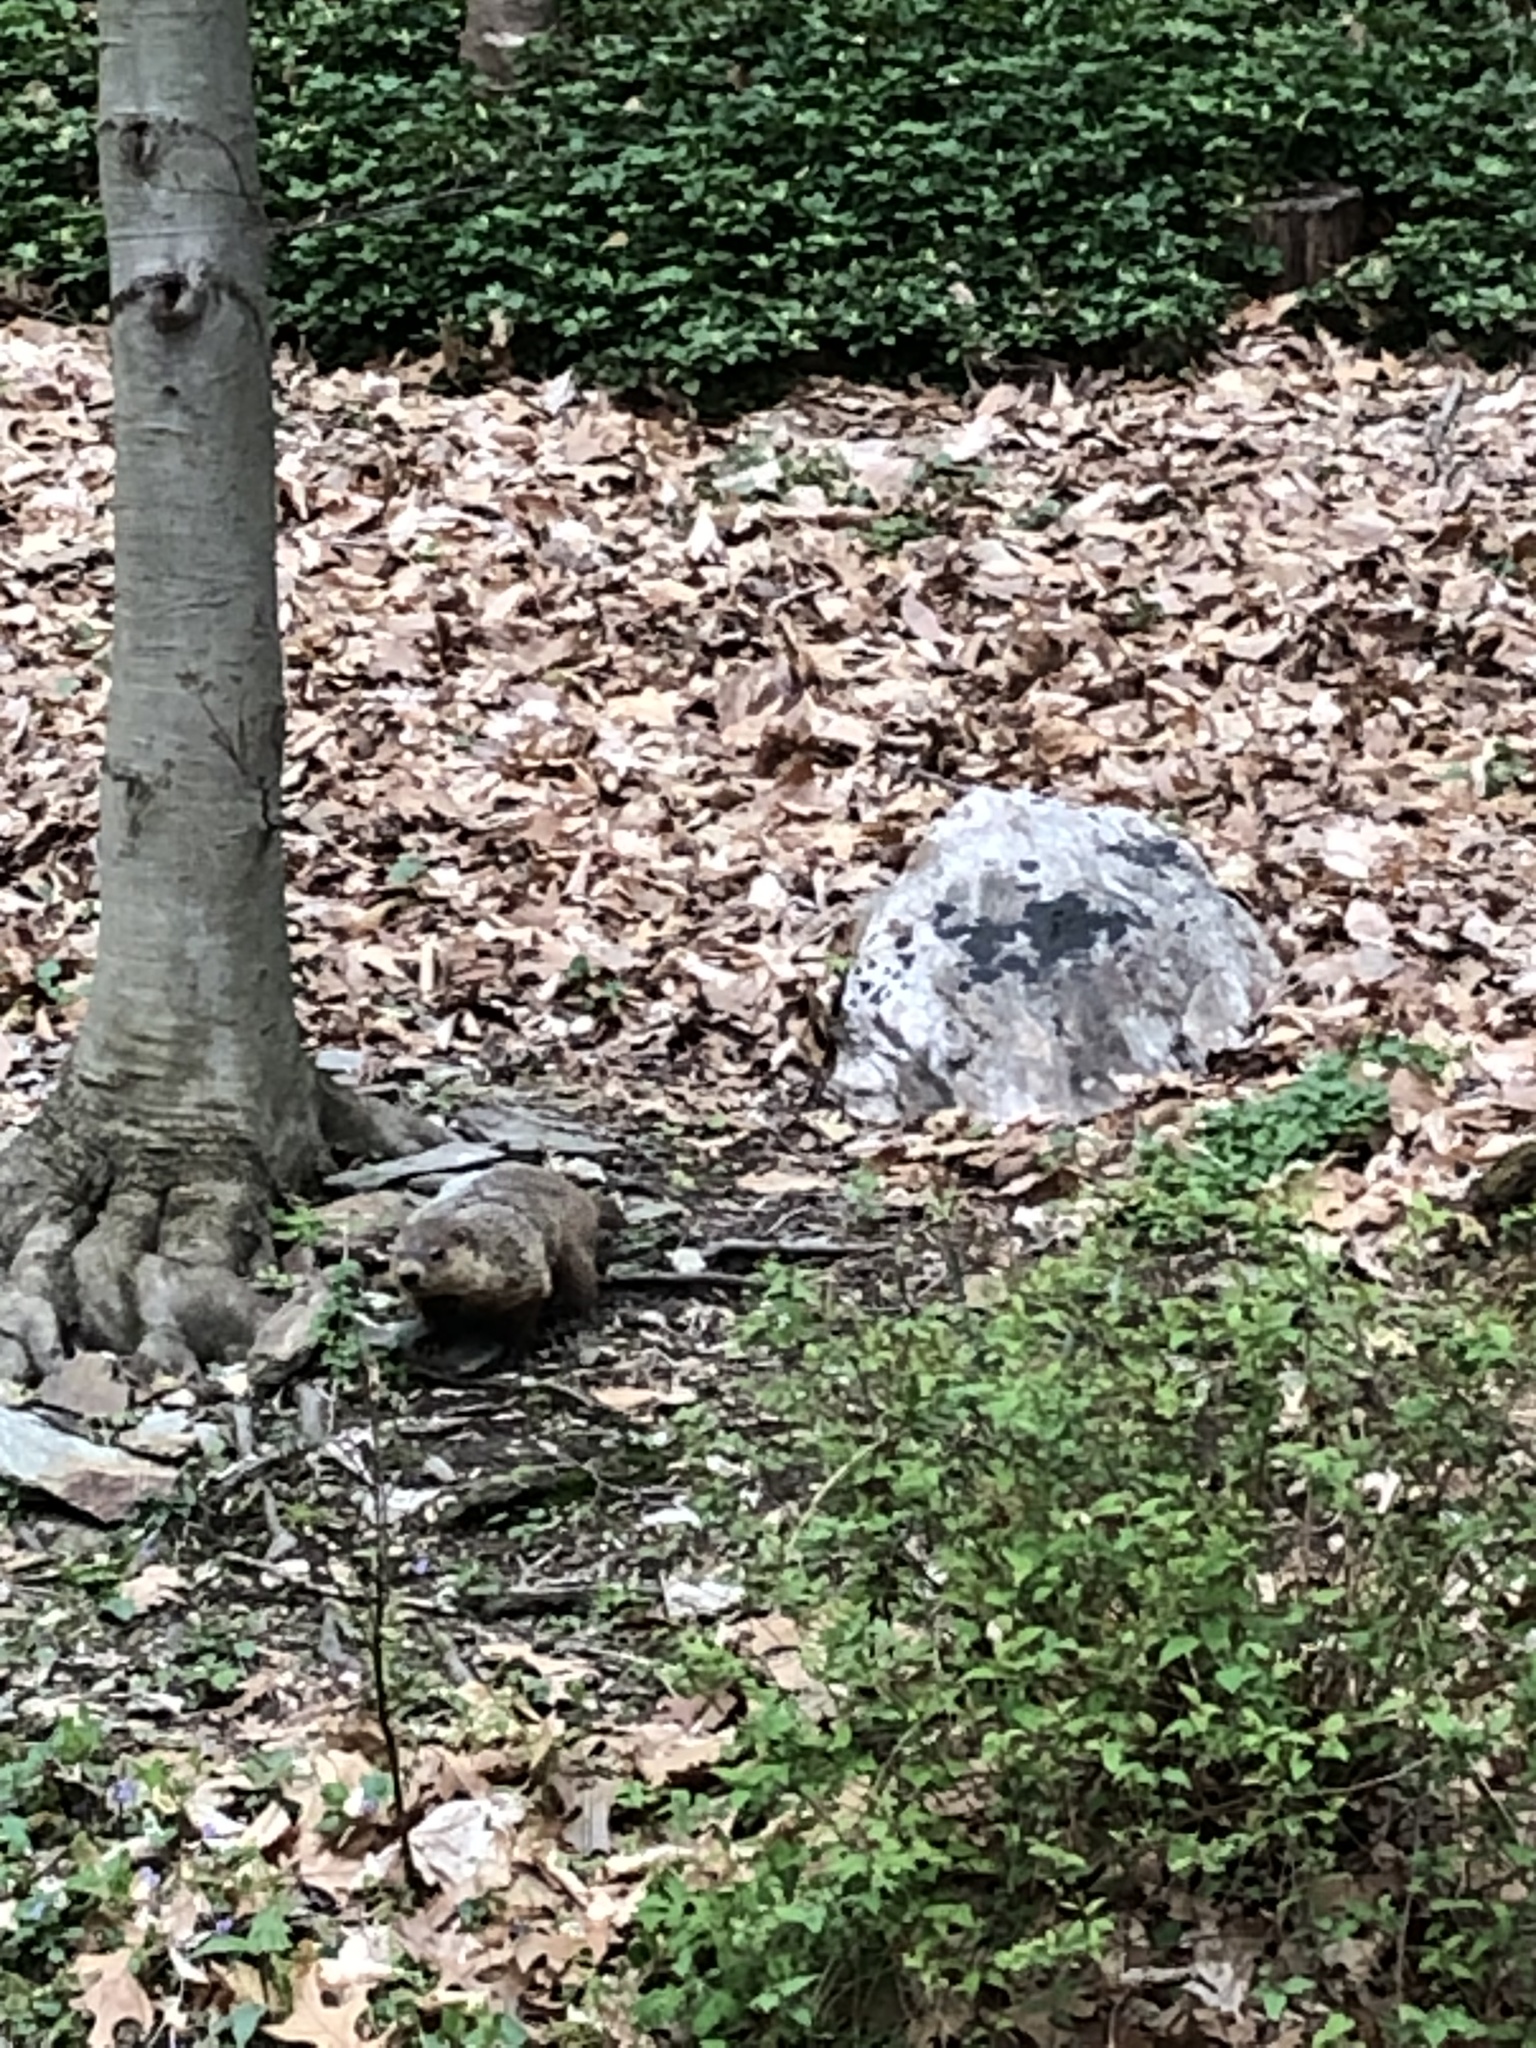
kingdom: Animalia
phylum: Chordata
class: Mammalia
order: Rodentia
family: Sciuridae
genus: Marmota
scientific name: Marmota monax
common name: Groundhog
